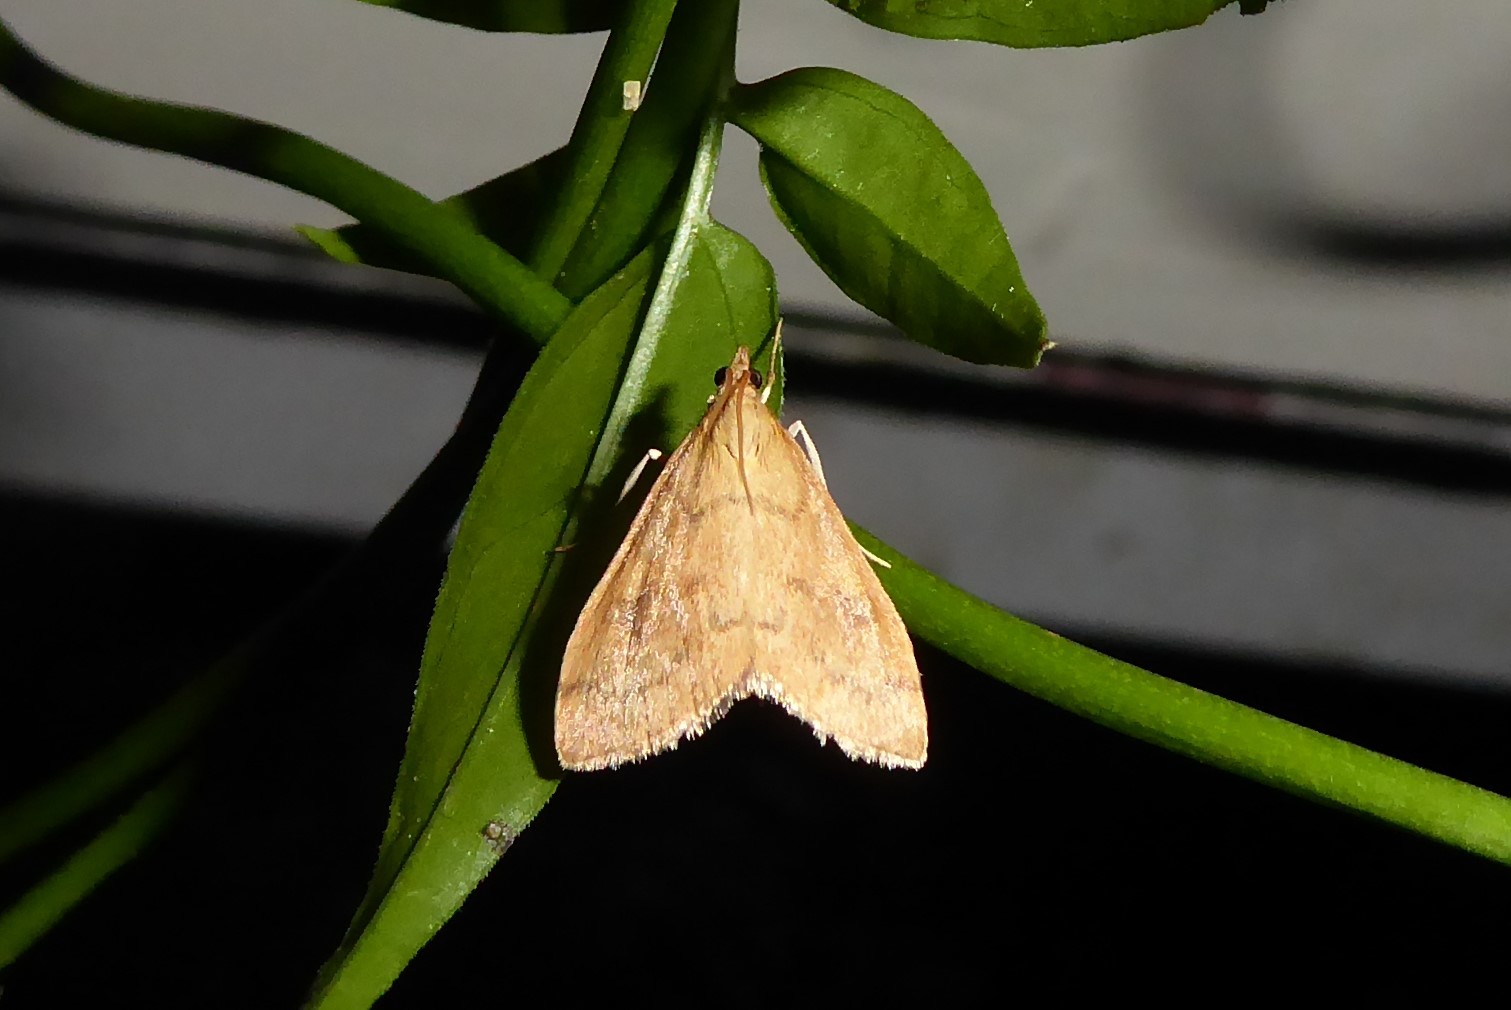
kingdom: Animalia
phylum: Arthropoda
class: Insecta
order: Lepidoptera
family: Crambidae
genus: Udea
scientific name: Udea Mnesictena flavidalis
